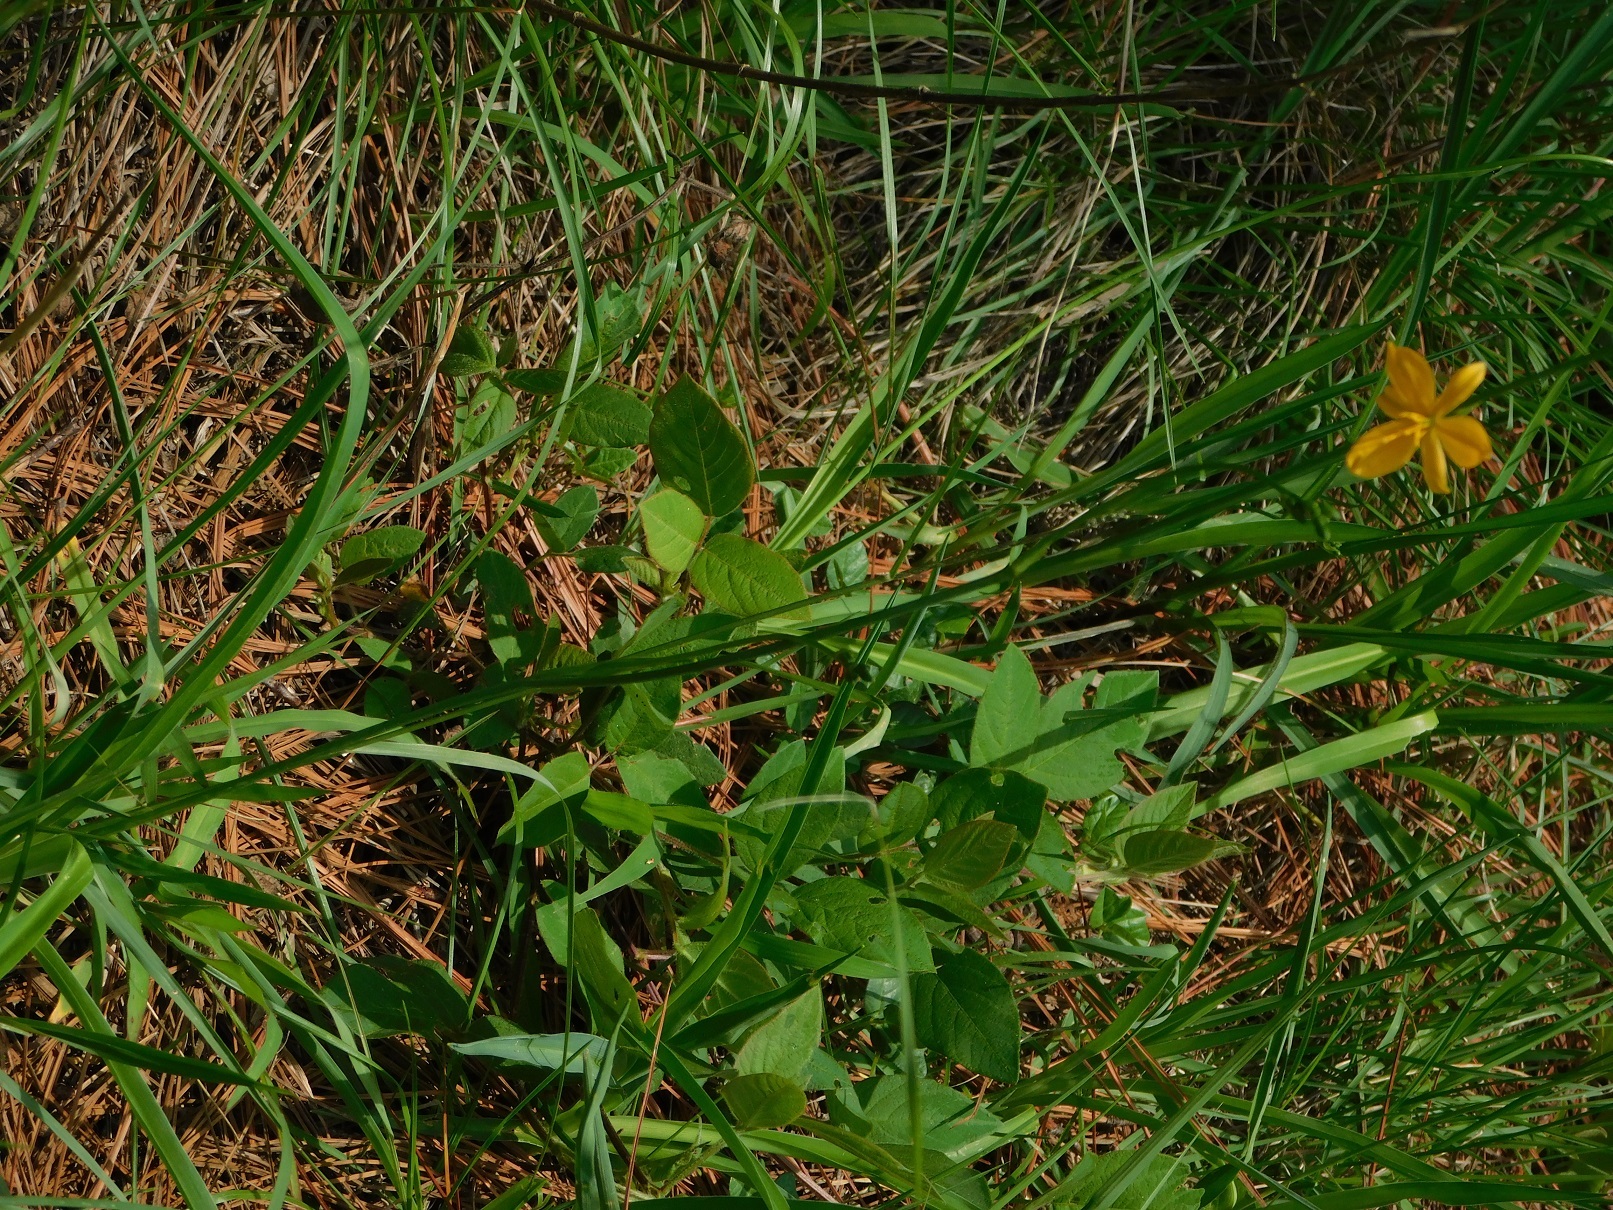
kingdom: Plantae
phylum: Tracheophyta
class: Liliopsida
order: Asparagales
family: Asparagaceae
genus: Echeandia
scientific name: Echeandia skinneri
